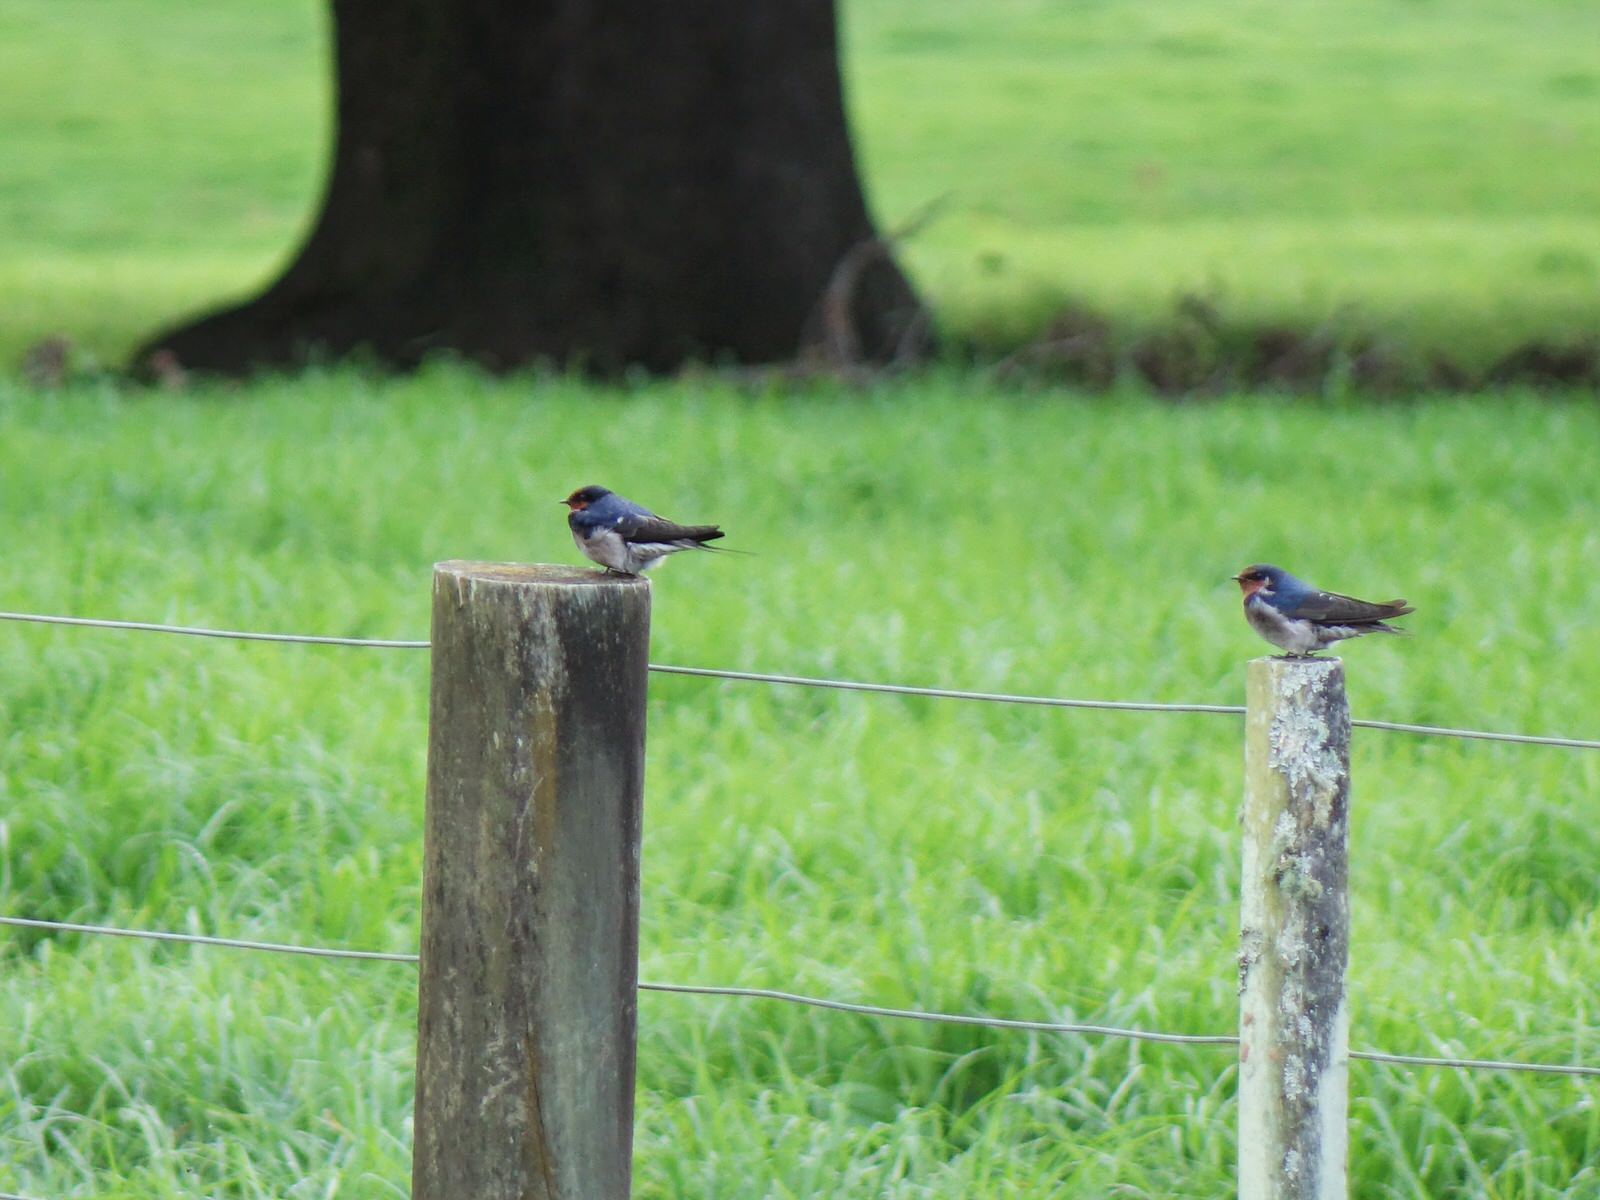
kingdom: Animalia
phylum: Chordata
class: Aves
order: Passeriformes
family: Hirundinidae
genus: Hirundo
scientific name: Hirundo neoxena
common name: Welcome swallow
